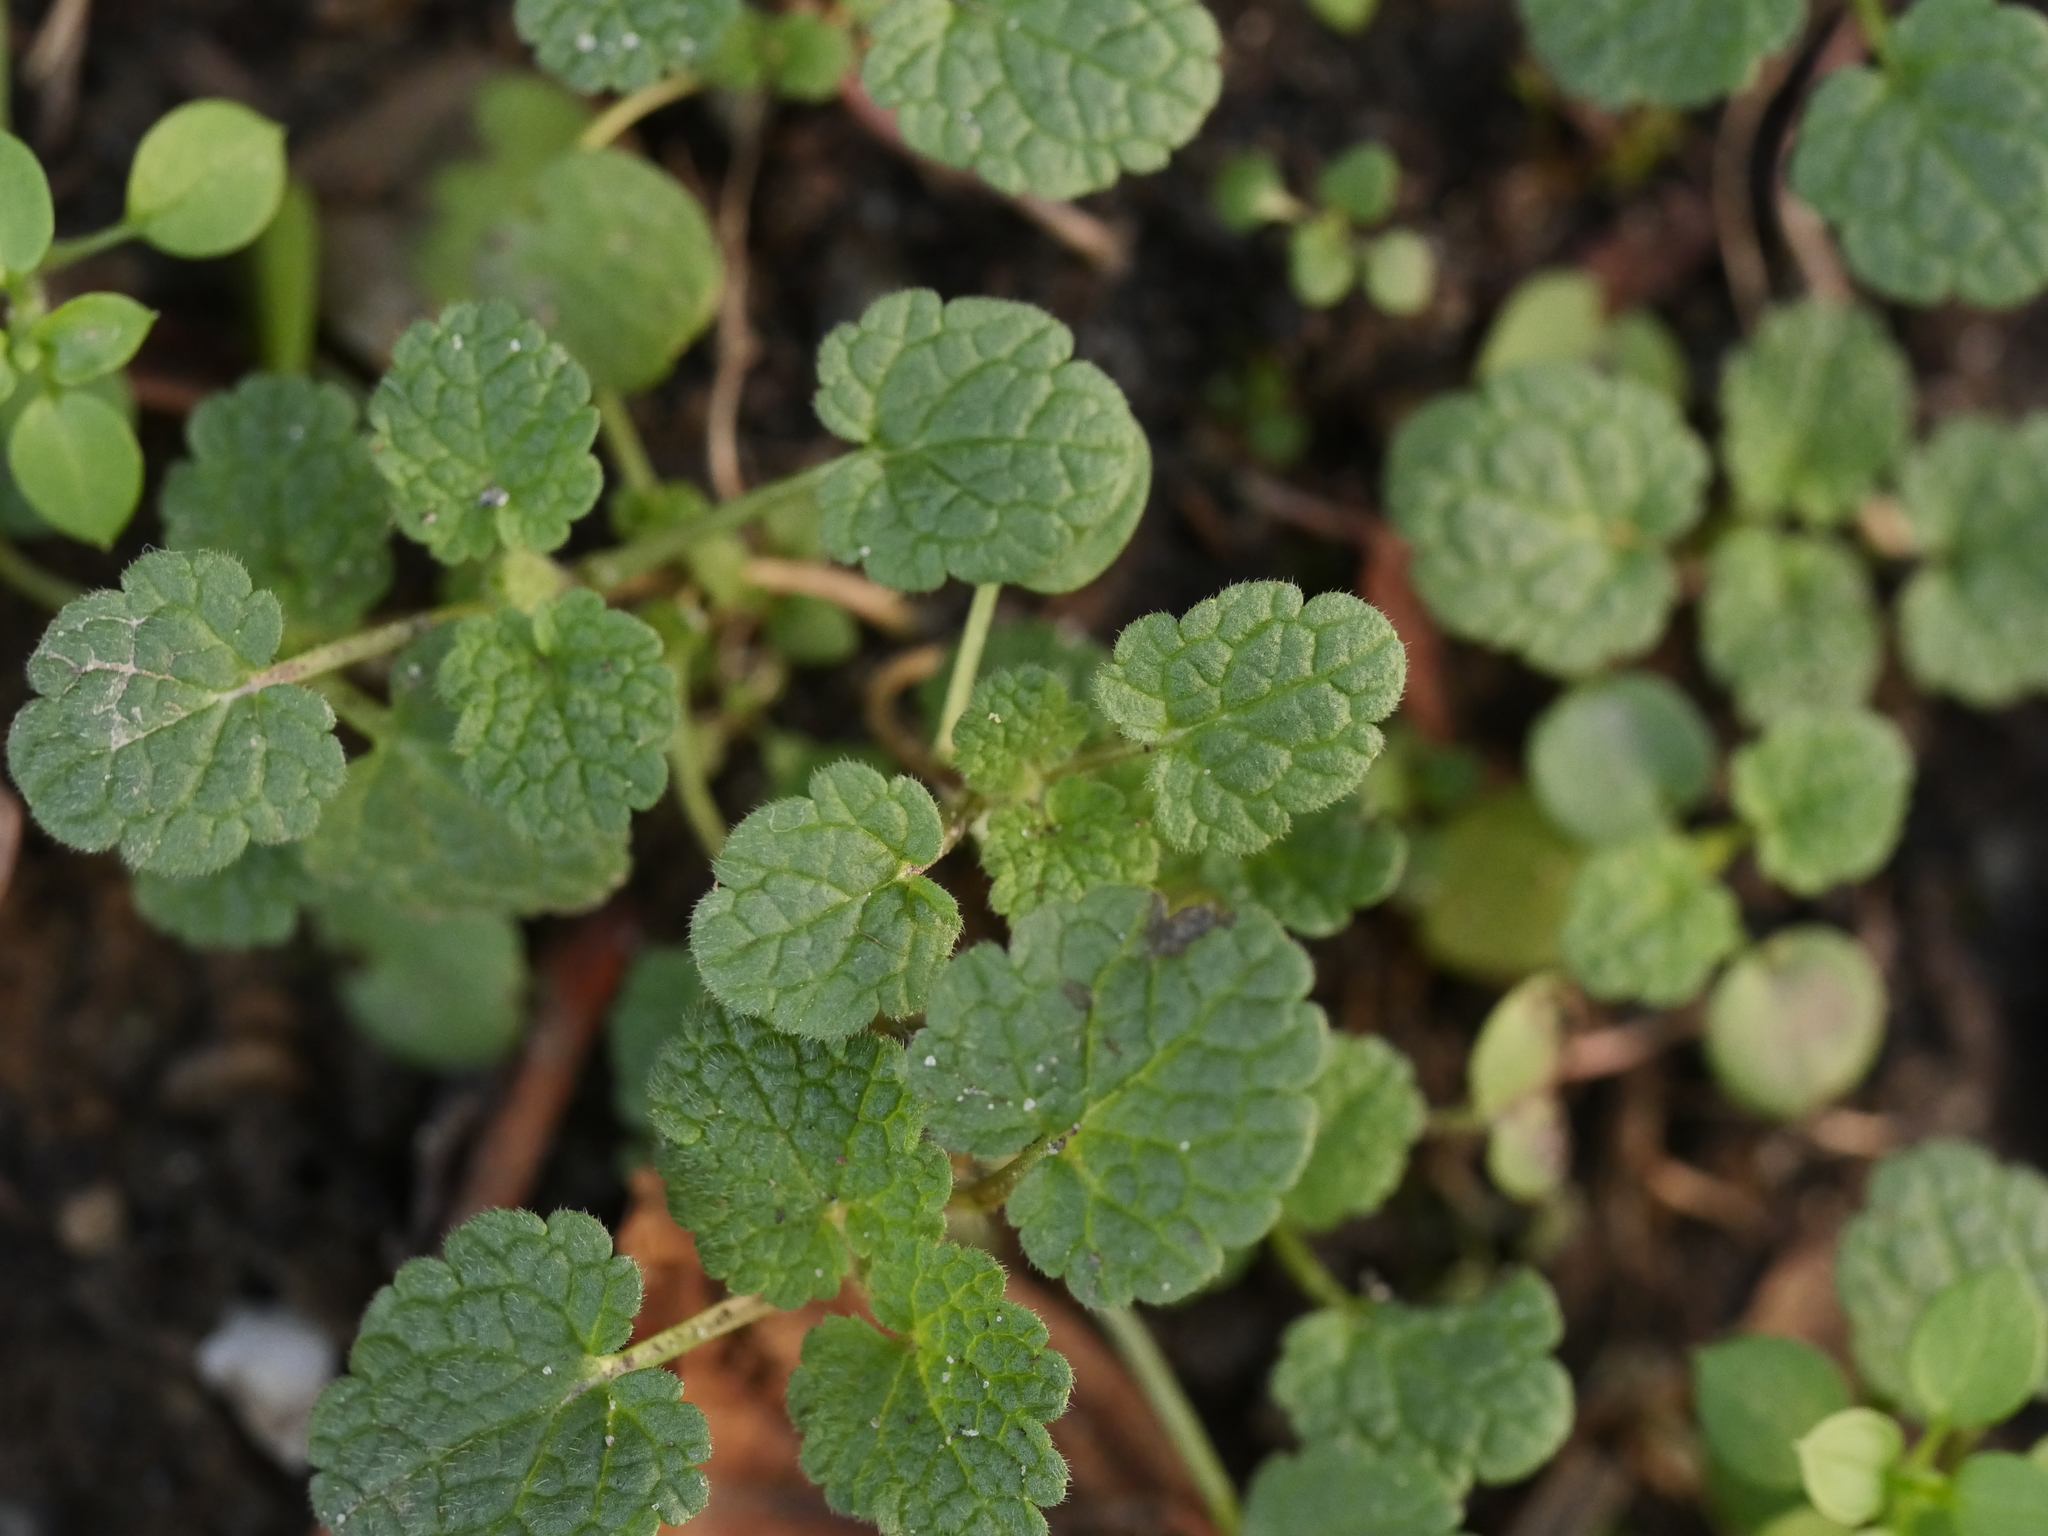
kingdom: Plantae
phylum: Tracheophyta
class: Magnoliopsida
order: Lamiales
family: Lamiaceae
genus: Lamium
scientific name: Lamium purpureum
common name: Red dead-nettle
